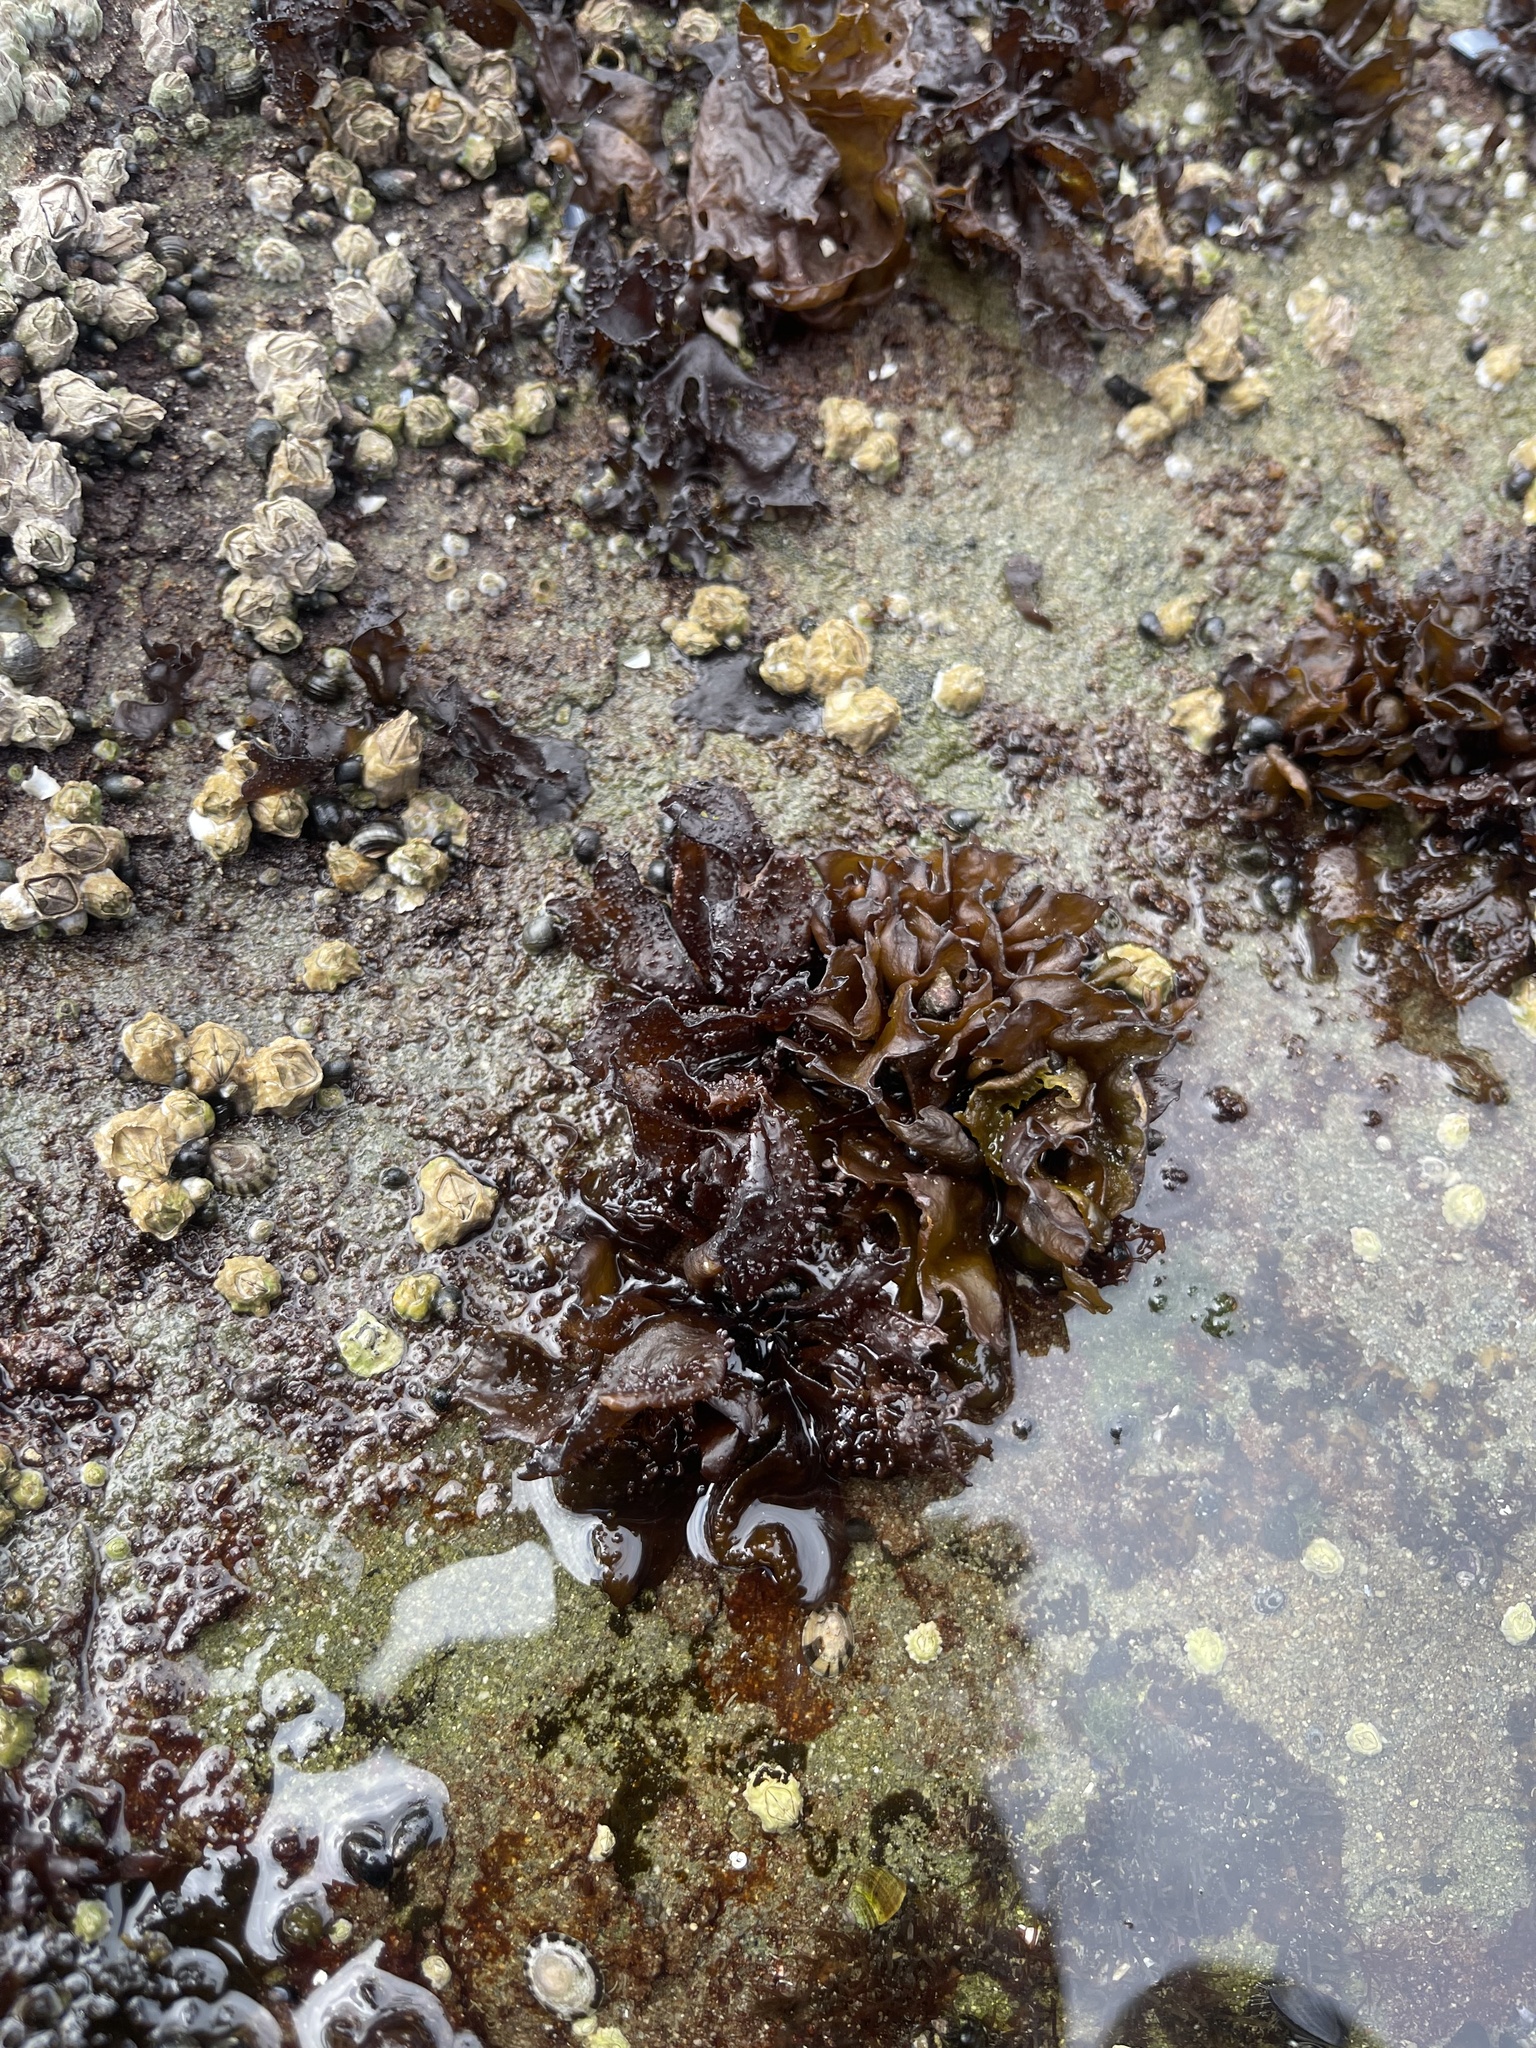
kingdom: Plantae
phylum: Rhodophyta
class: Florideophyceae
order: Gigartinales
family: Phyllophoraceae
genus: Mastocarpus
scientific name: Mastocarpus papillatus
